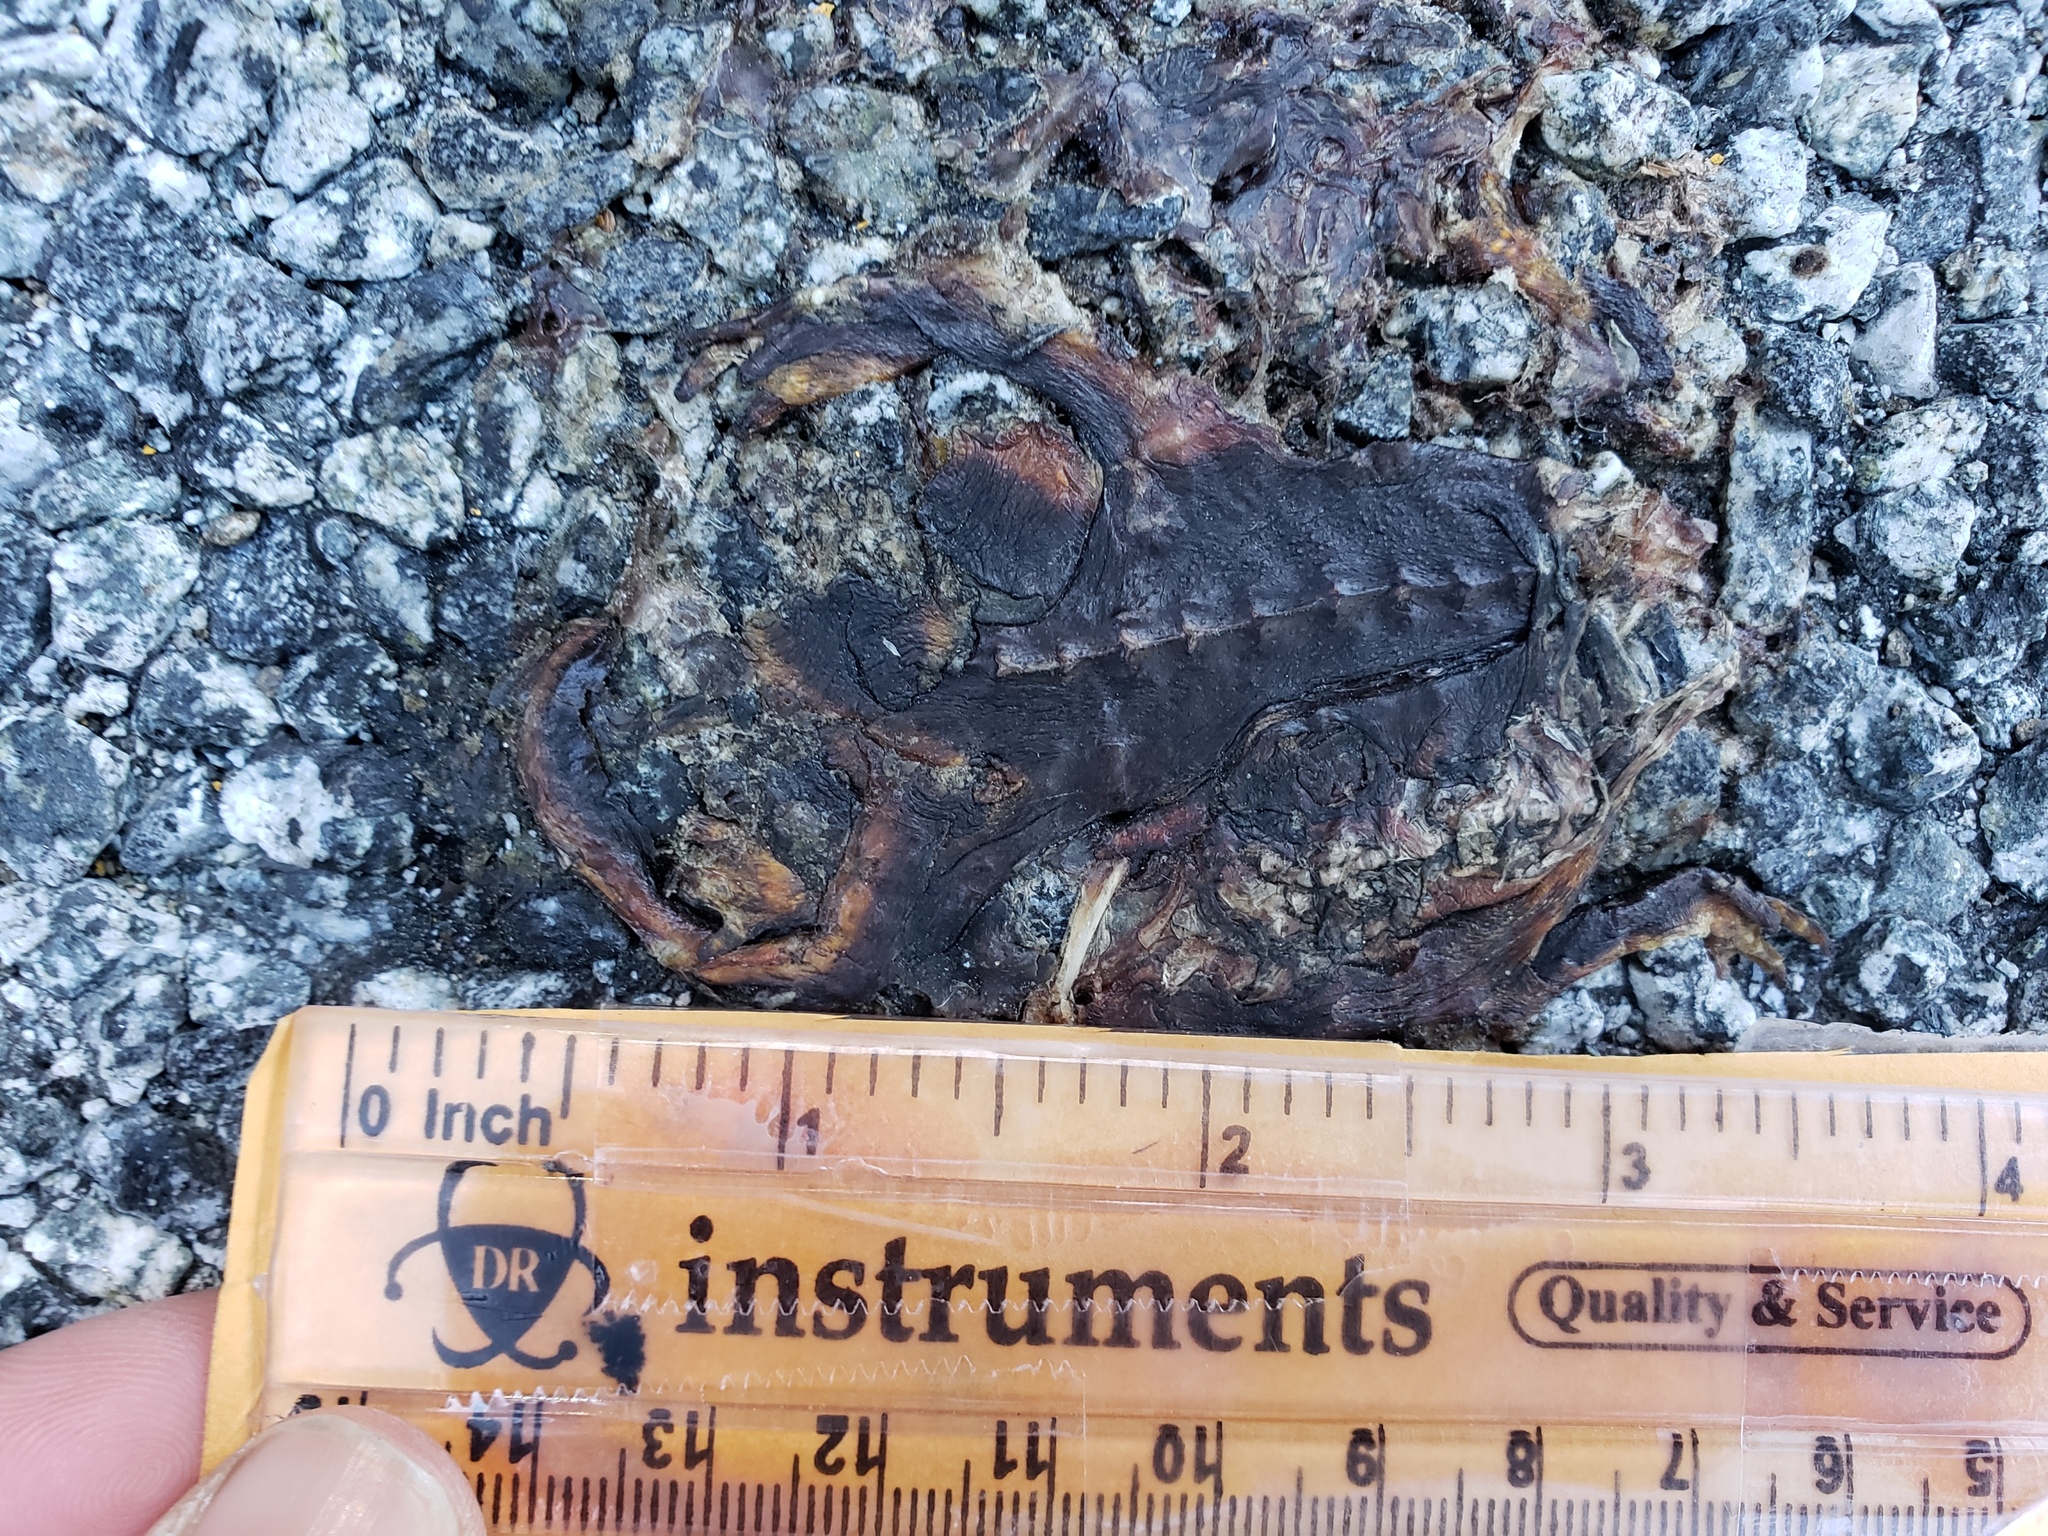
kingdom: Animalia
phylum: Chordata
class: Amphibia
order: Caudata
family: Salamandridae
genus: Taricha
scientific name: Taricha
